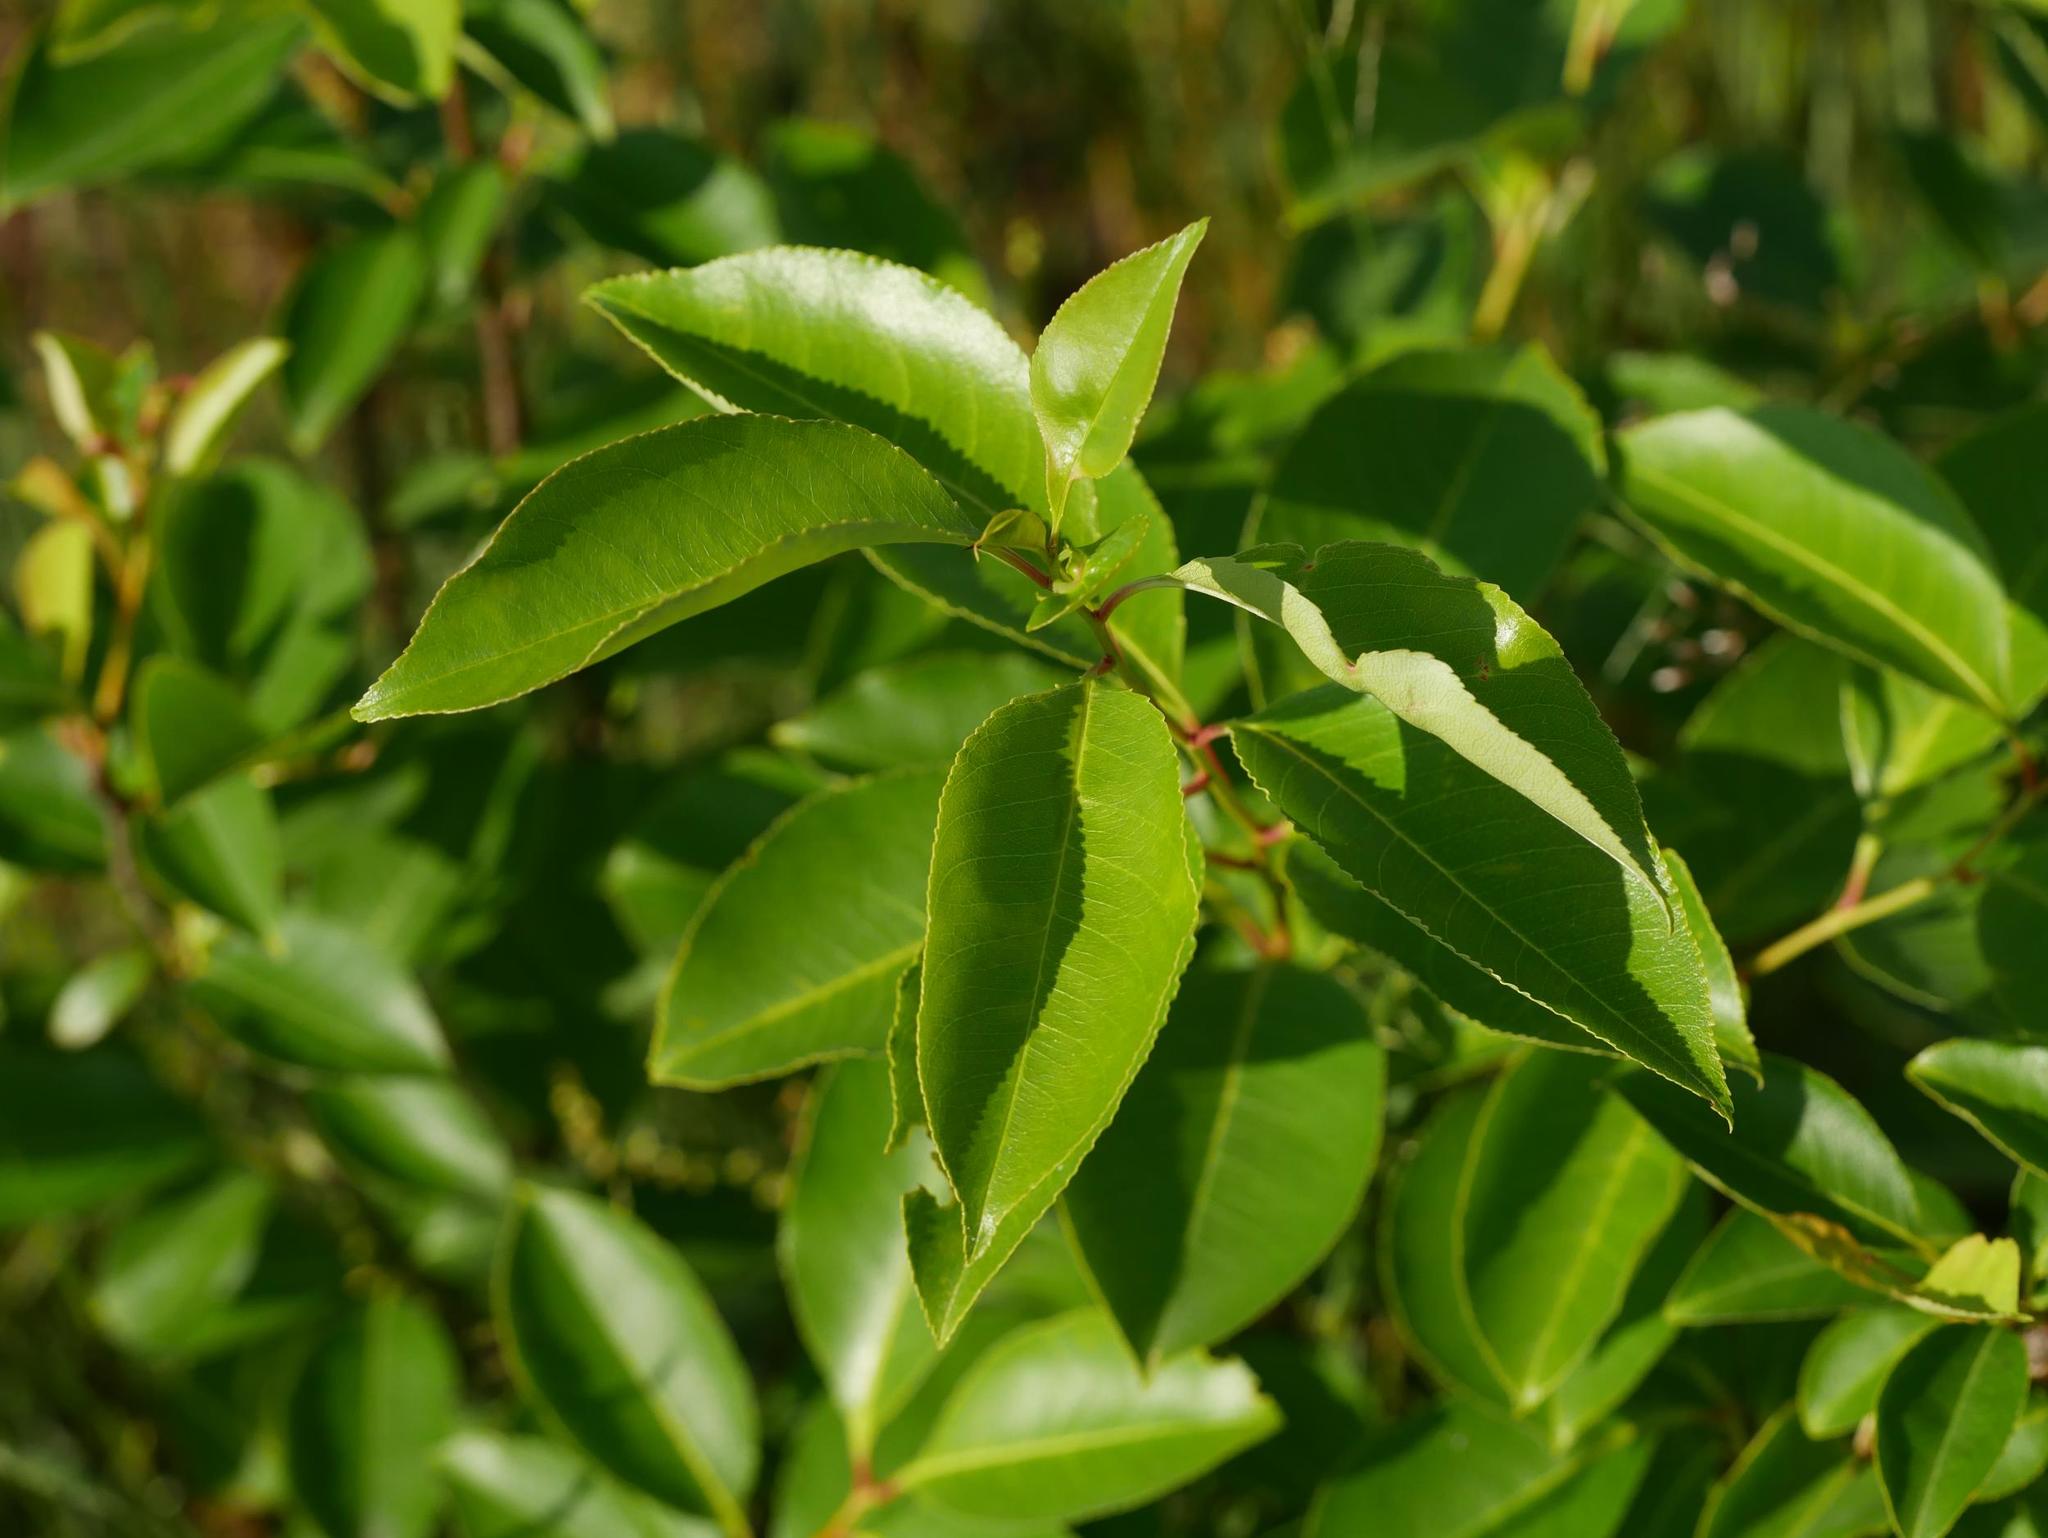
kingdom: Plantae
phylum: Tracheophyta
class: Magnoliopsida
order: Rosales
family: Rosaceae
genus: Prunus
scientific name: Prunus serotina
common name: Black cherry
